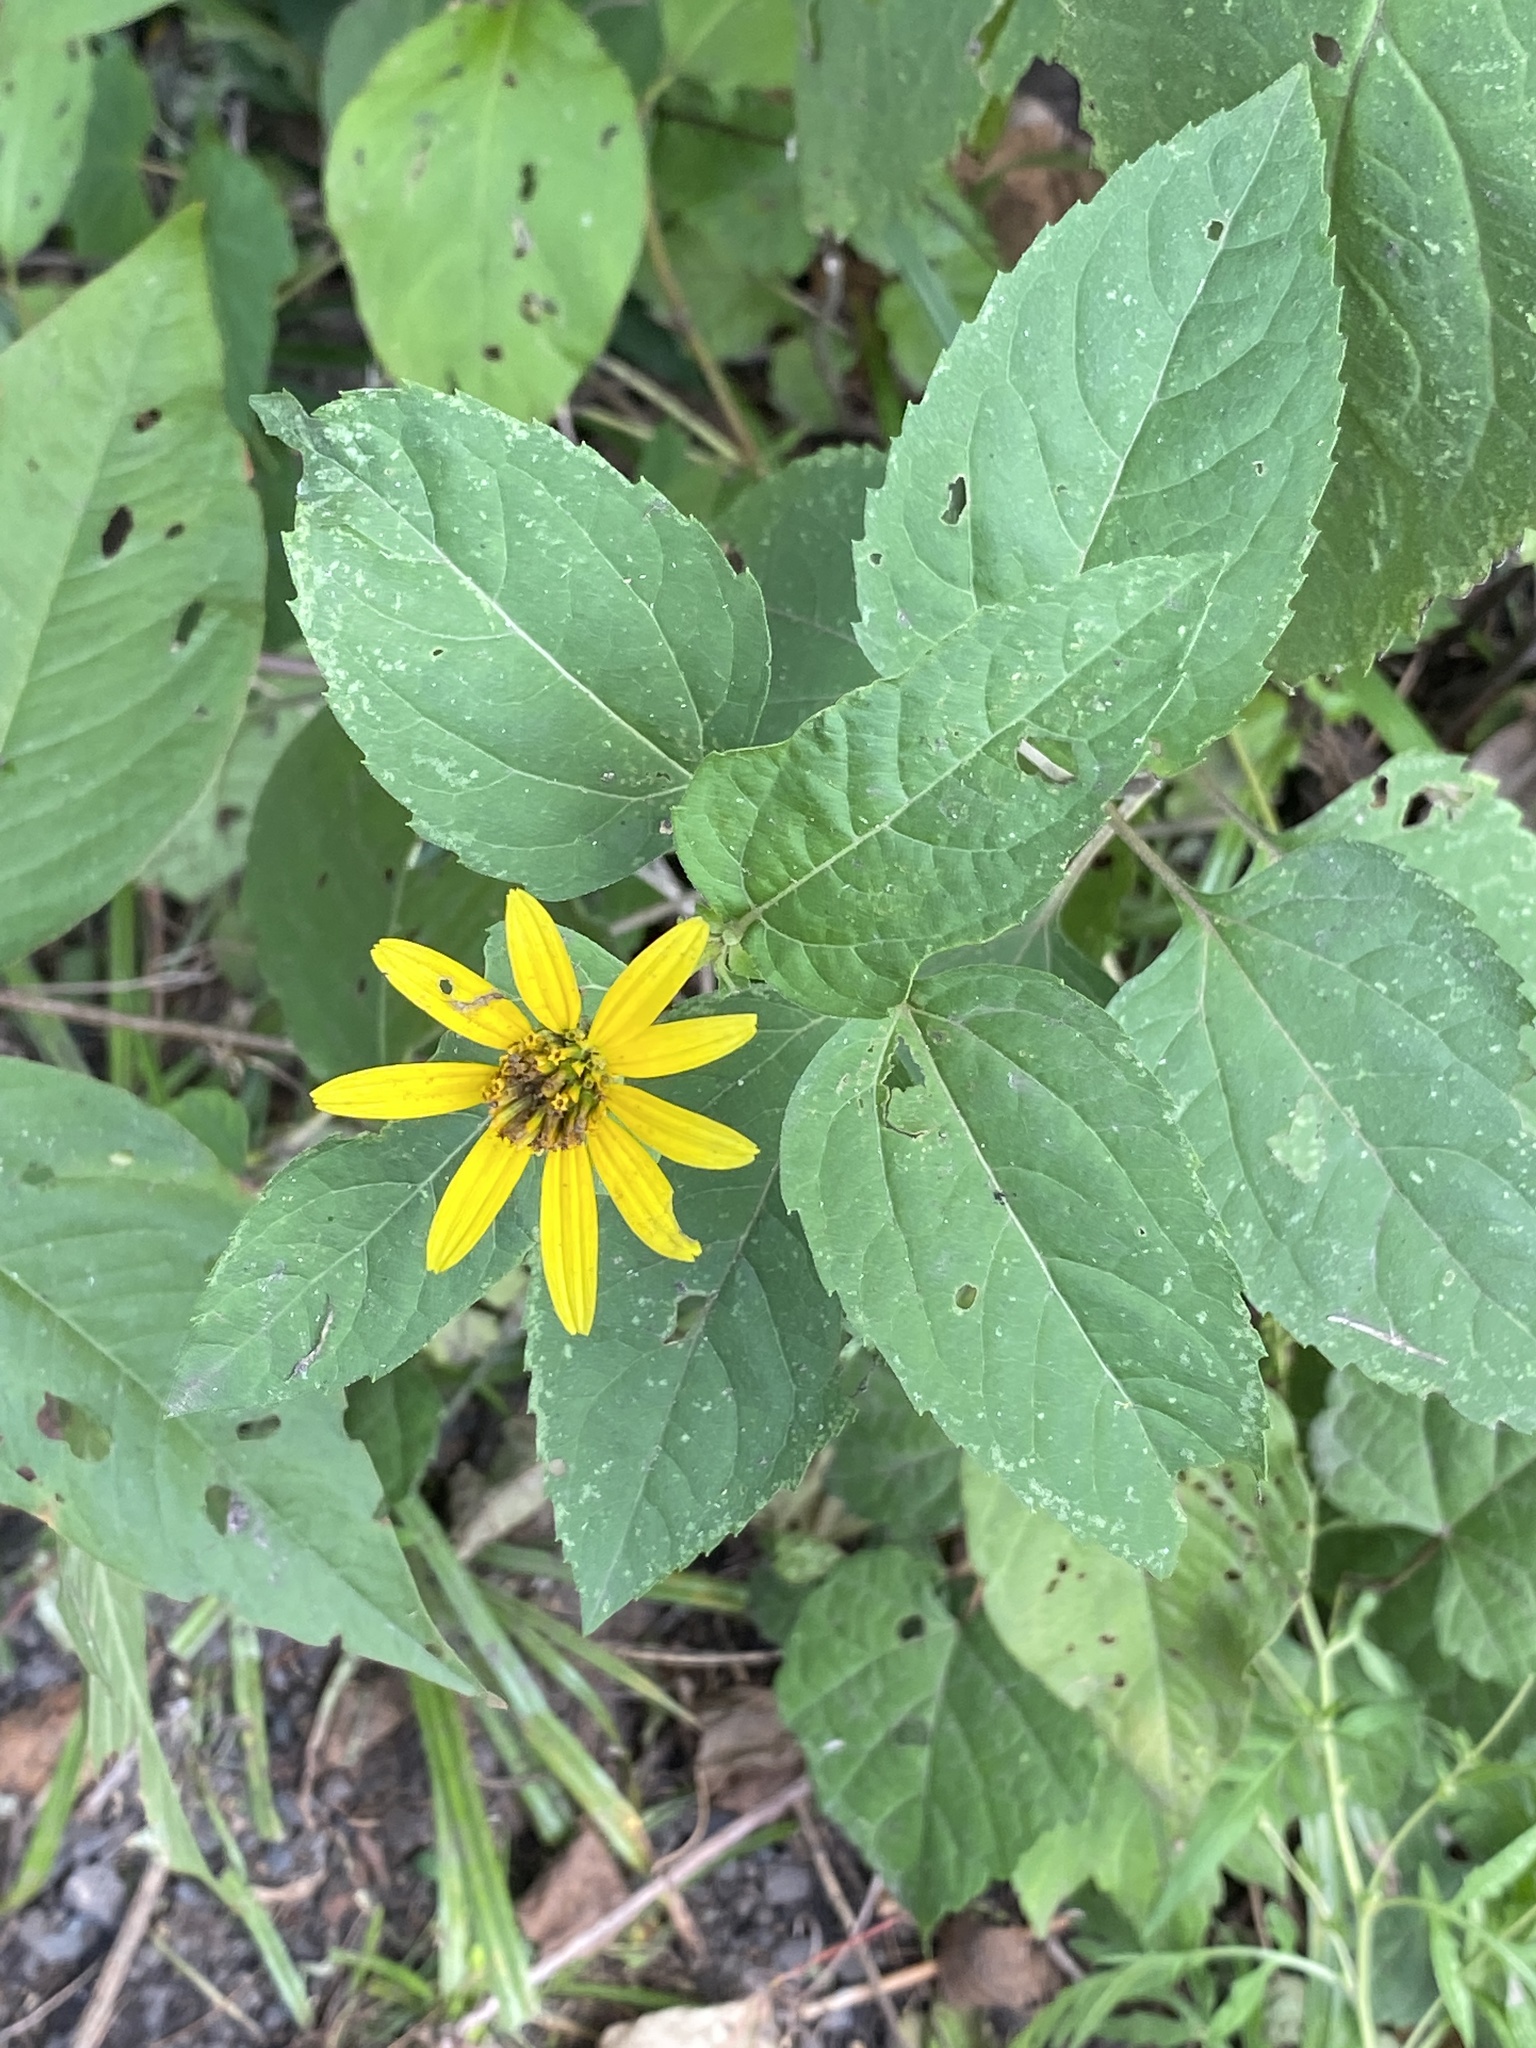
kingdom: Plantae
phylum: Tracheophyta
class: Magnoliopsida
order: Asterales
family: Asteraceae
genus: Heliopsis
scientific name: Heliopsis helianthoides
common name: False sunflower
